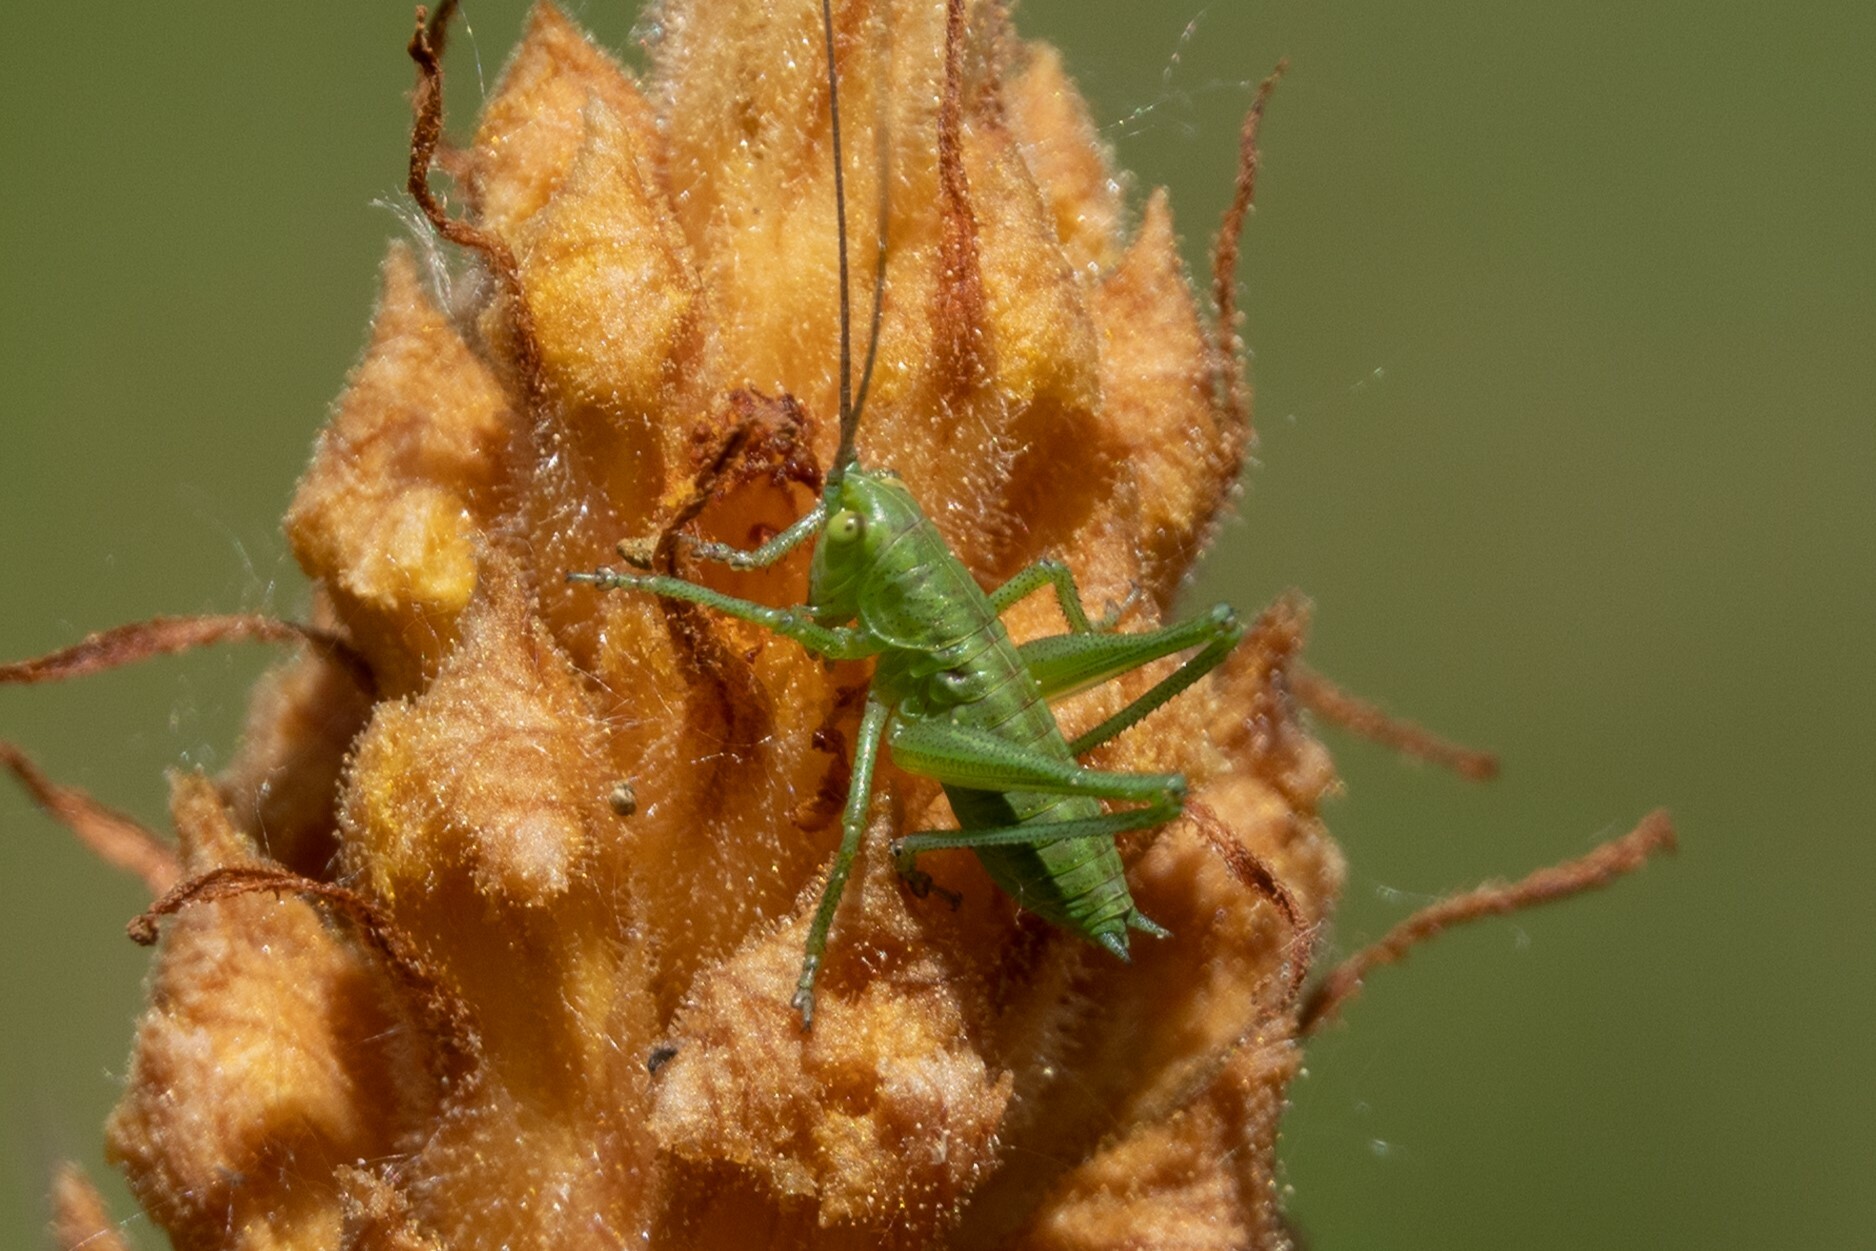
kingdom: Animalia
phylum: Arthropoda
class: Insecta
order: Orthoptera
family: Tettigoniidae
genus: Tettigonia
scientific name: Tettigonia viridissima
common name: Great green bush-cricket
